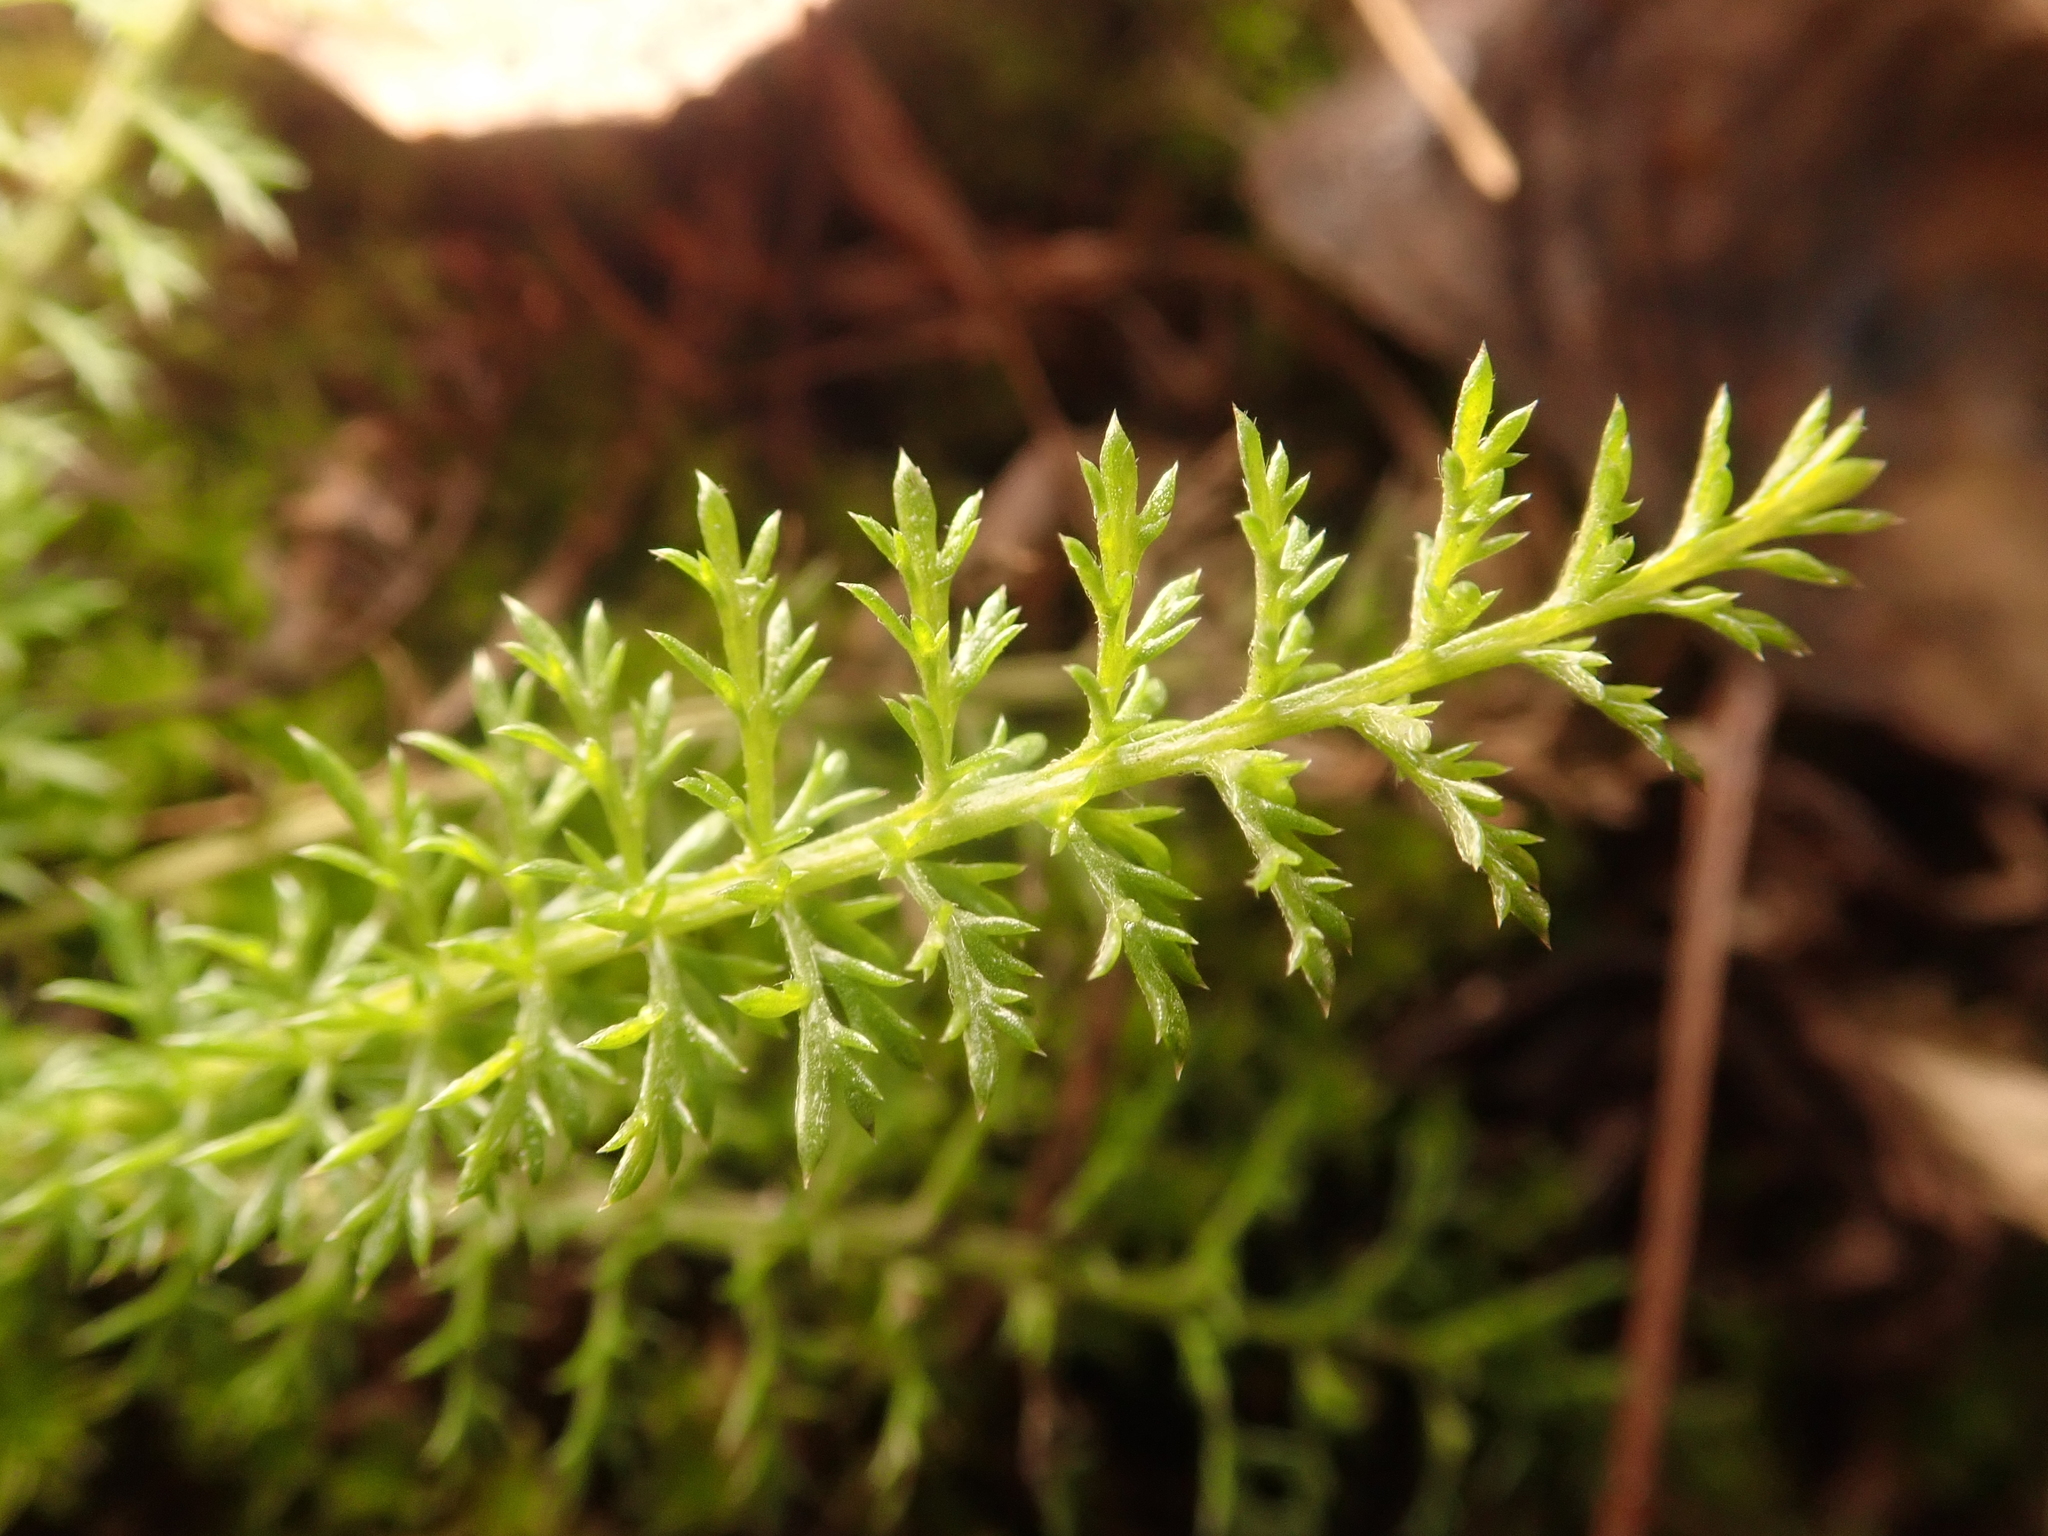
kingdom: Plantae
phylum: Tracheophyta
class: Magnoliopsida
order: Asterales
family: Asteraceae
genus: Achillea
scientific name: Achillea millefolium
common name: Yarrow
